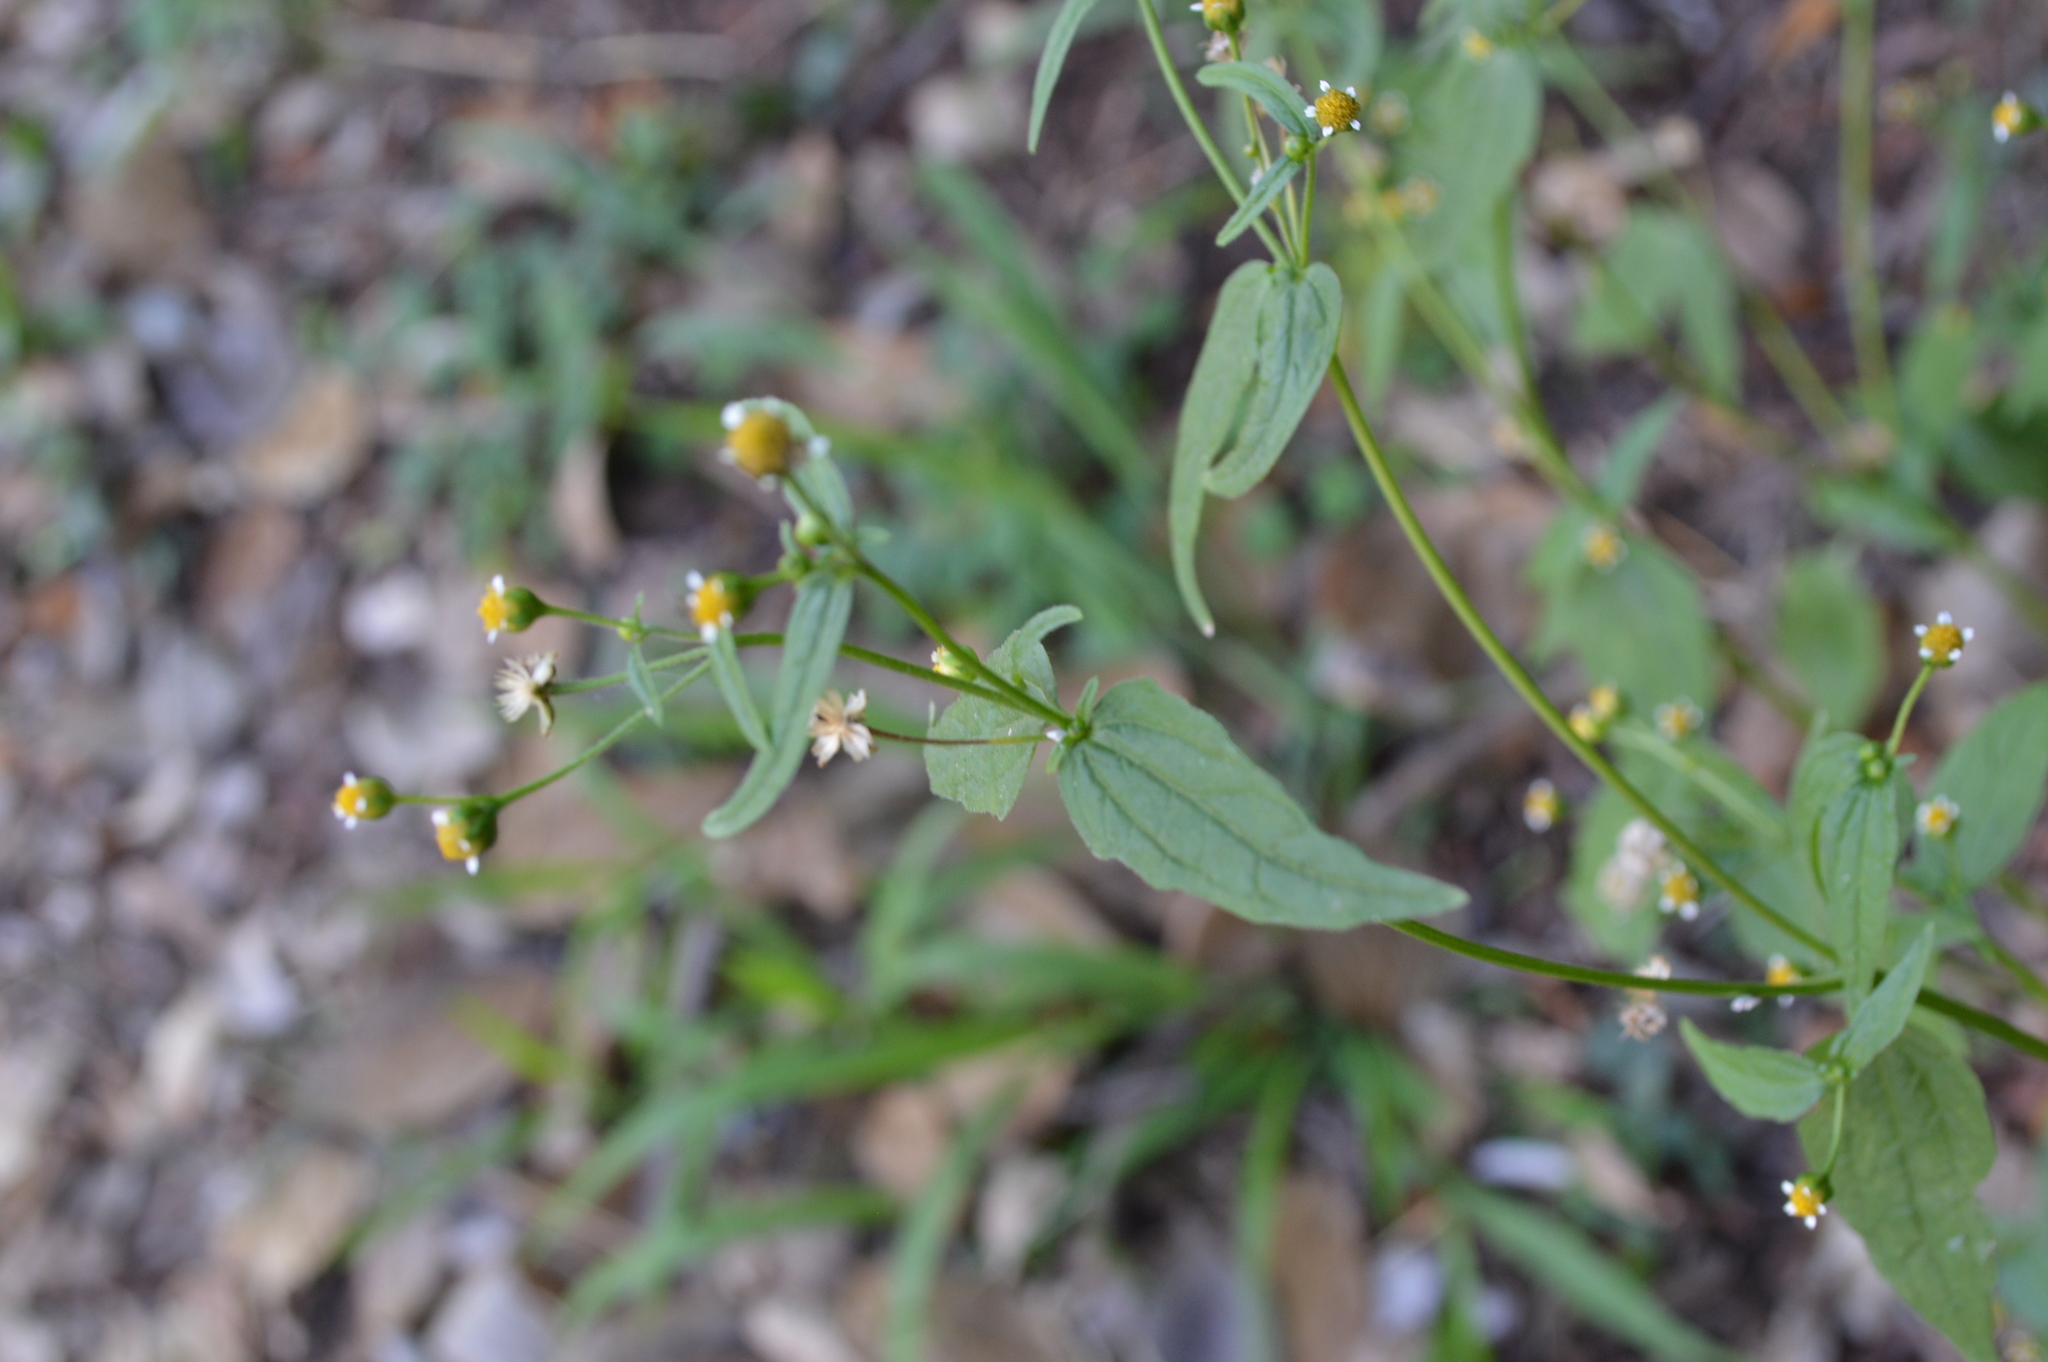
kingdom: Plantae
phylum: Tracheophyta
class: Magnoliopsida
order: Asterales
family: Asteraceae
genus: Galinsoga
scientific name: Galinsoga parviflora
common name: Gallant soldier
